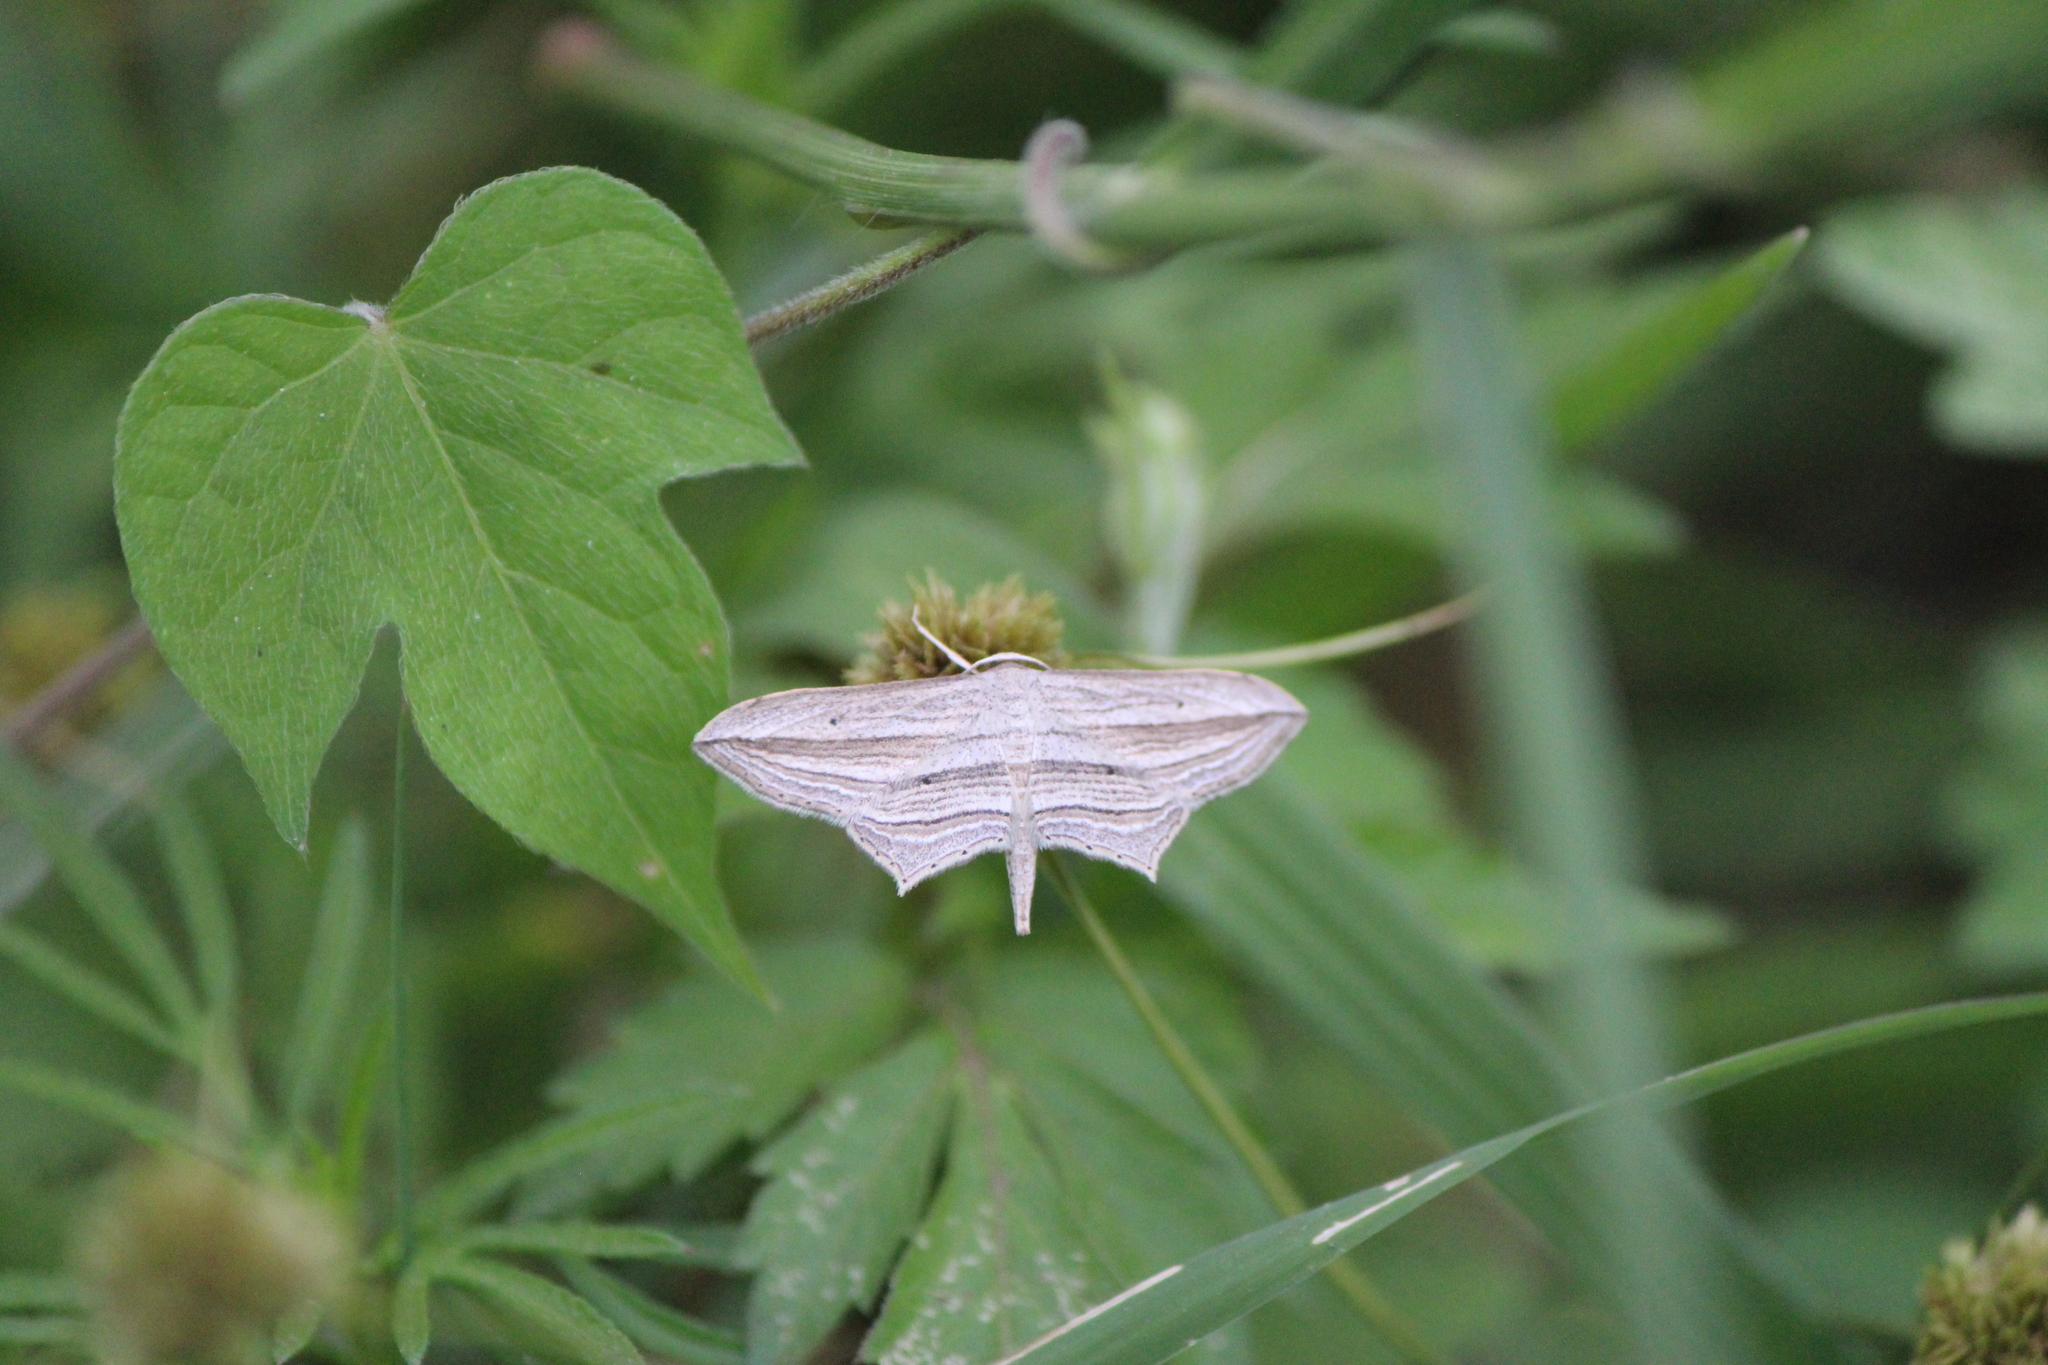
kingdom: Animalia
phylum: Arthropoda
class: Insecta
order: Lepidoptera
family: Geometridae
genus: Arcobara
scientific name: Arcobara perlineata
